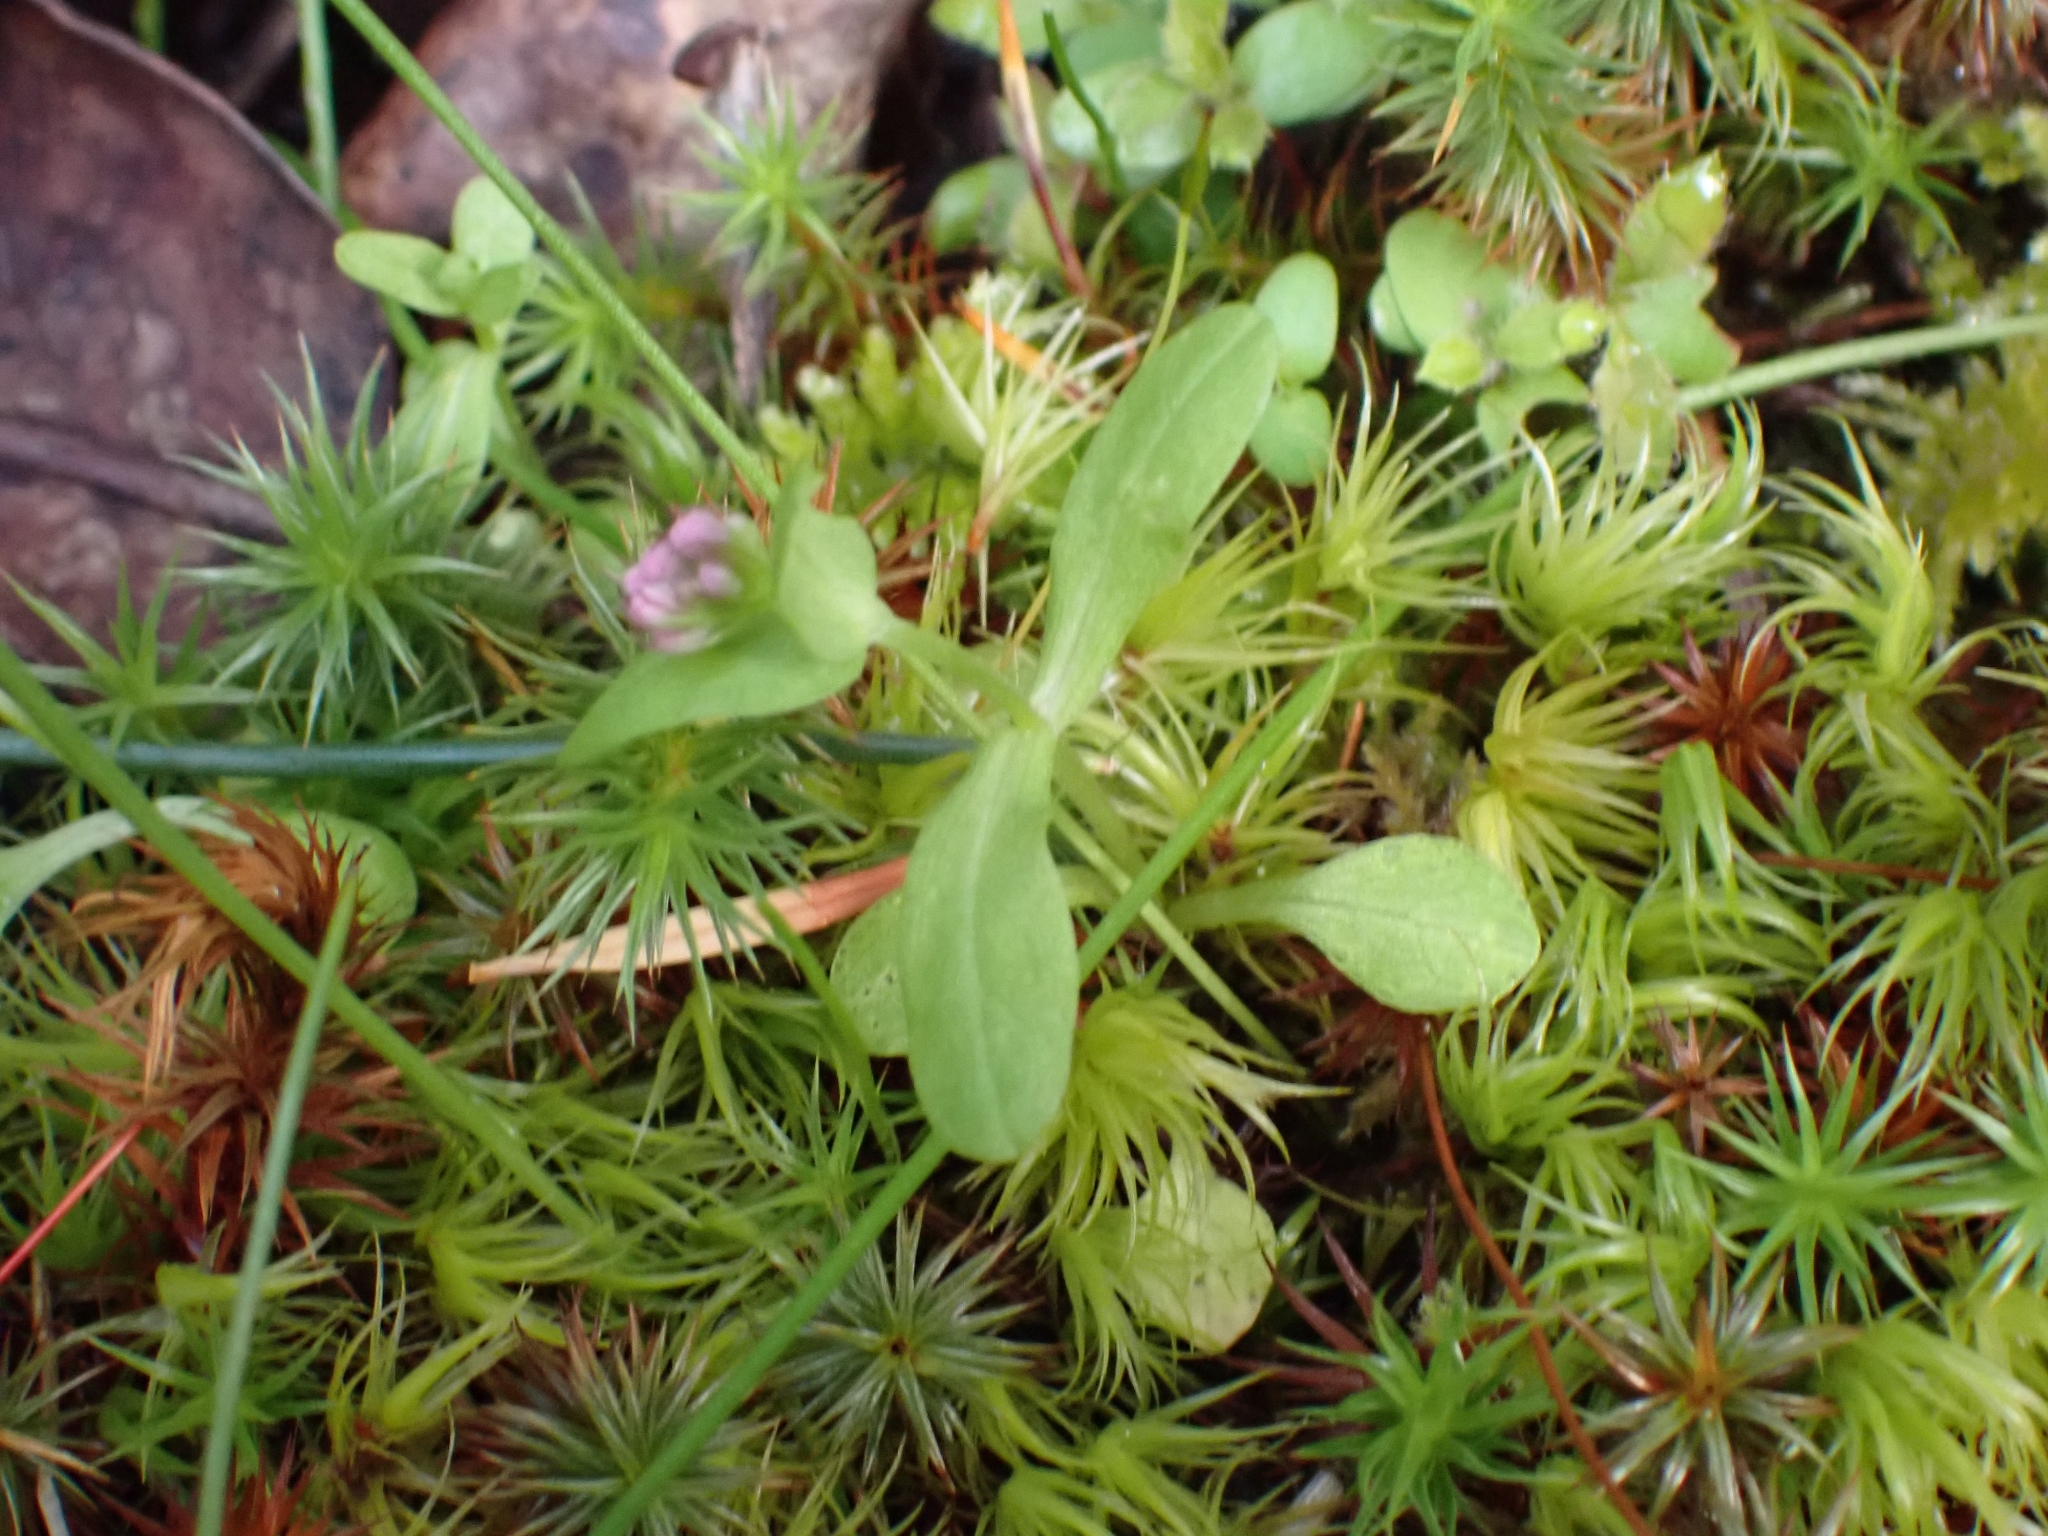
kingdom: Plantae
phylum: Tracheophyta
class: Magnoliopsida
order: Dipsacales
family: Caprifoliaceae
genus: Plectritis
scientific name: Plectritis congesta
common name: Pink plectritis
